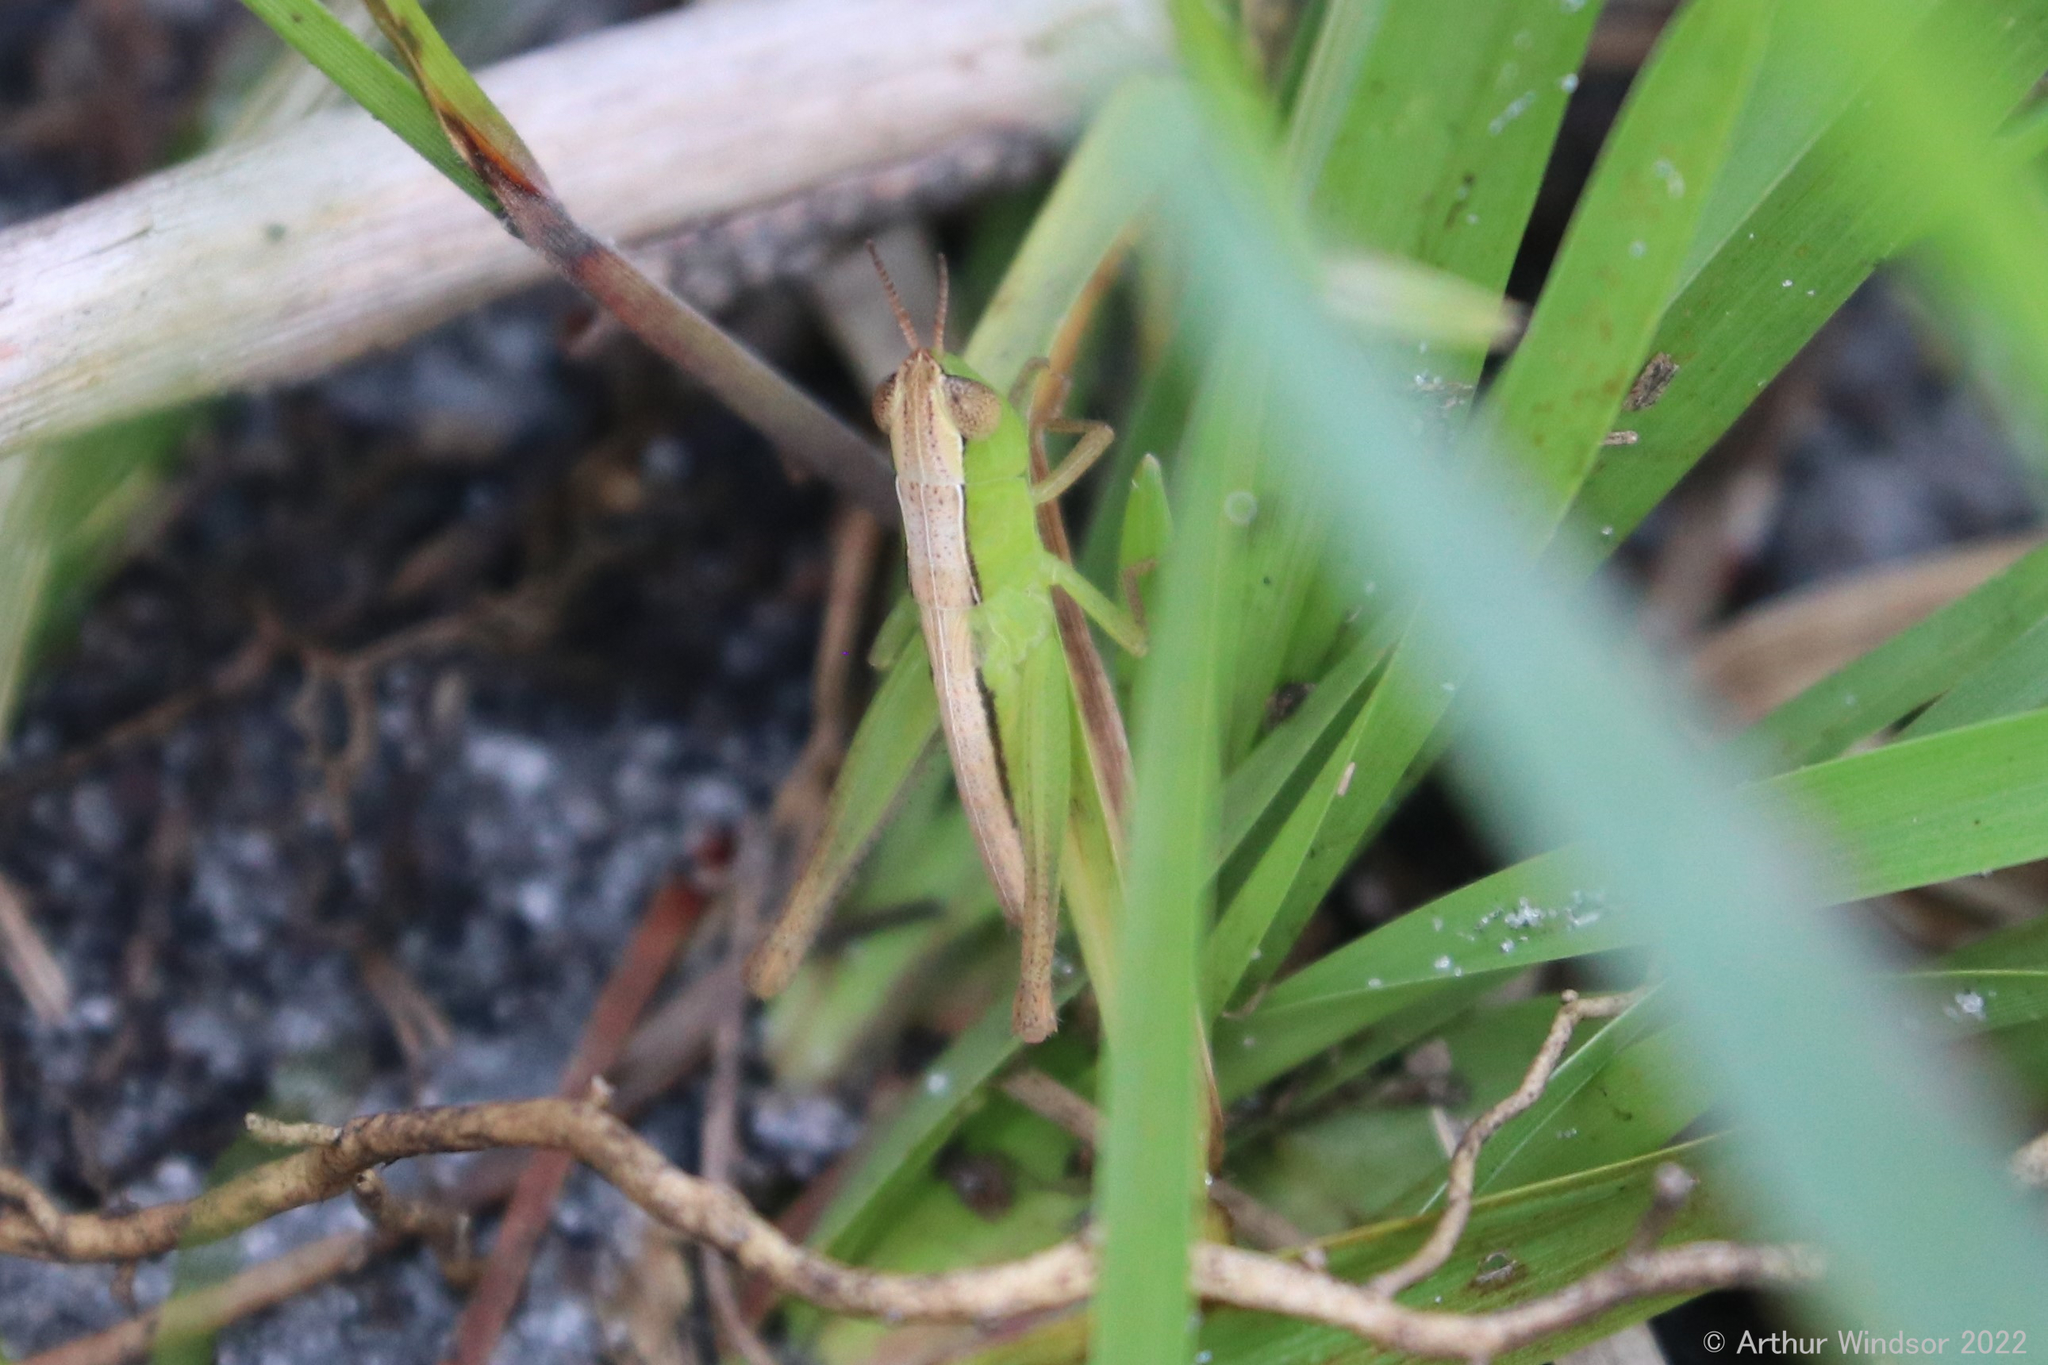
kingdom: Animalia
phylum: Arthropoda
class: Insecta
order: Orthoptera
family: Acrididae
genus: Dichromorpha
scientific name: Dichromorpha elegans
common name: Elegant grasshopper
